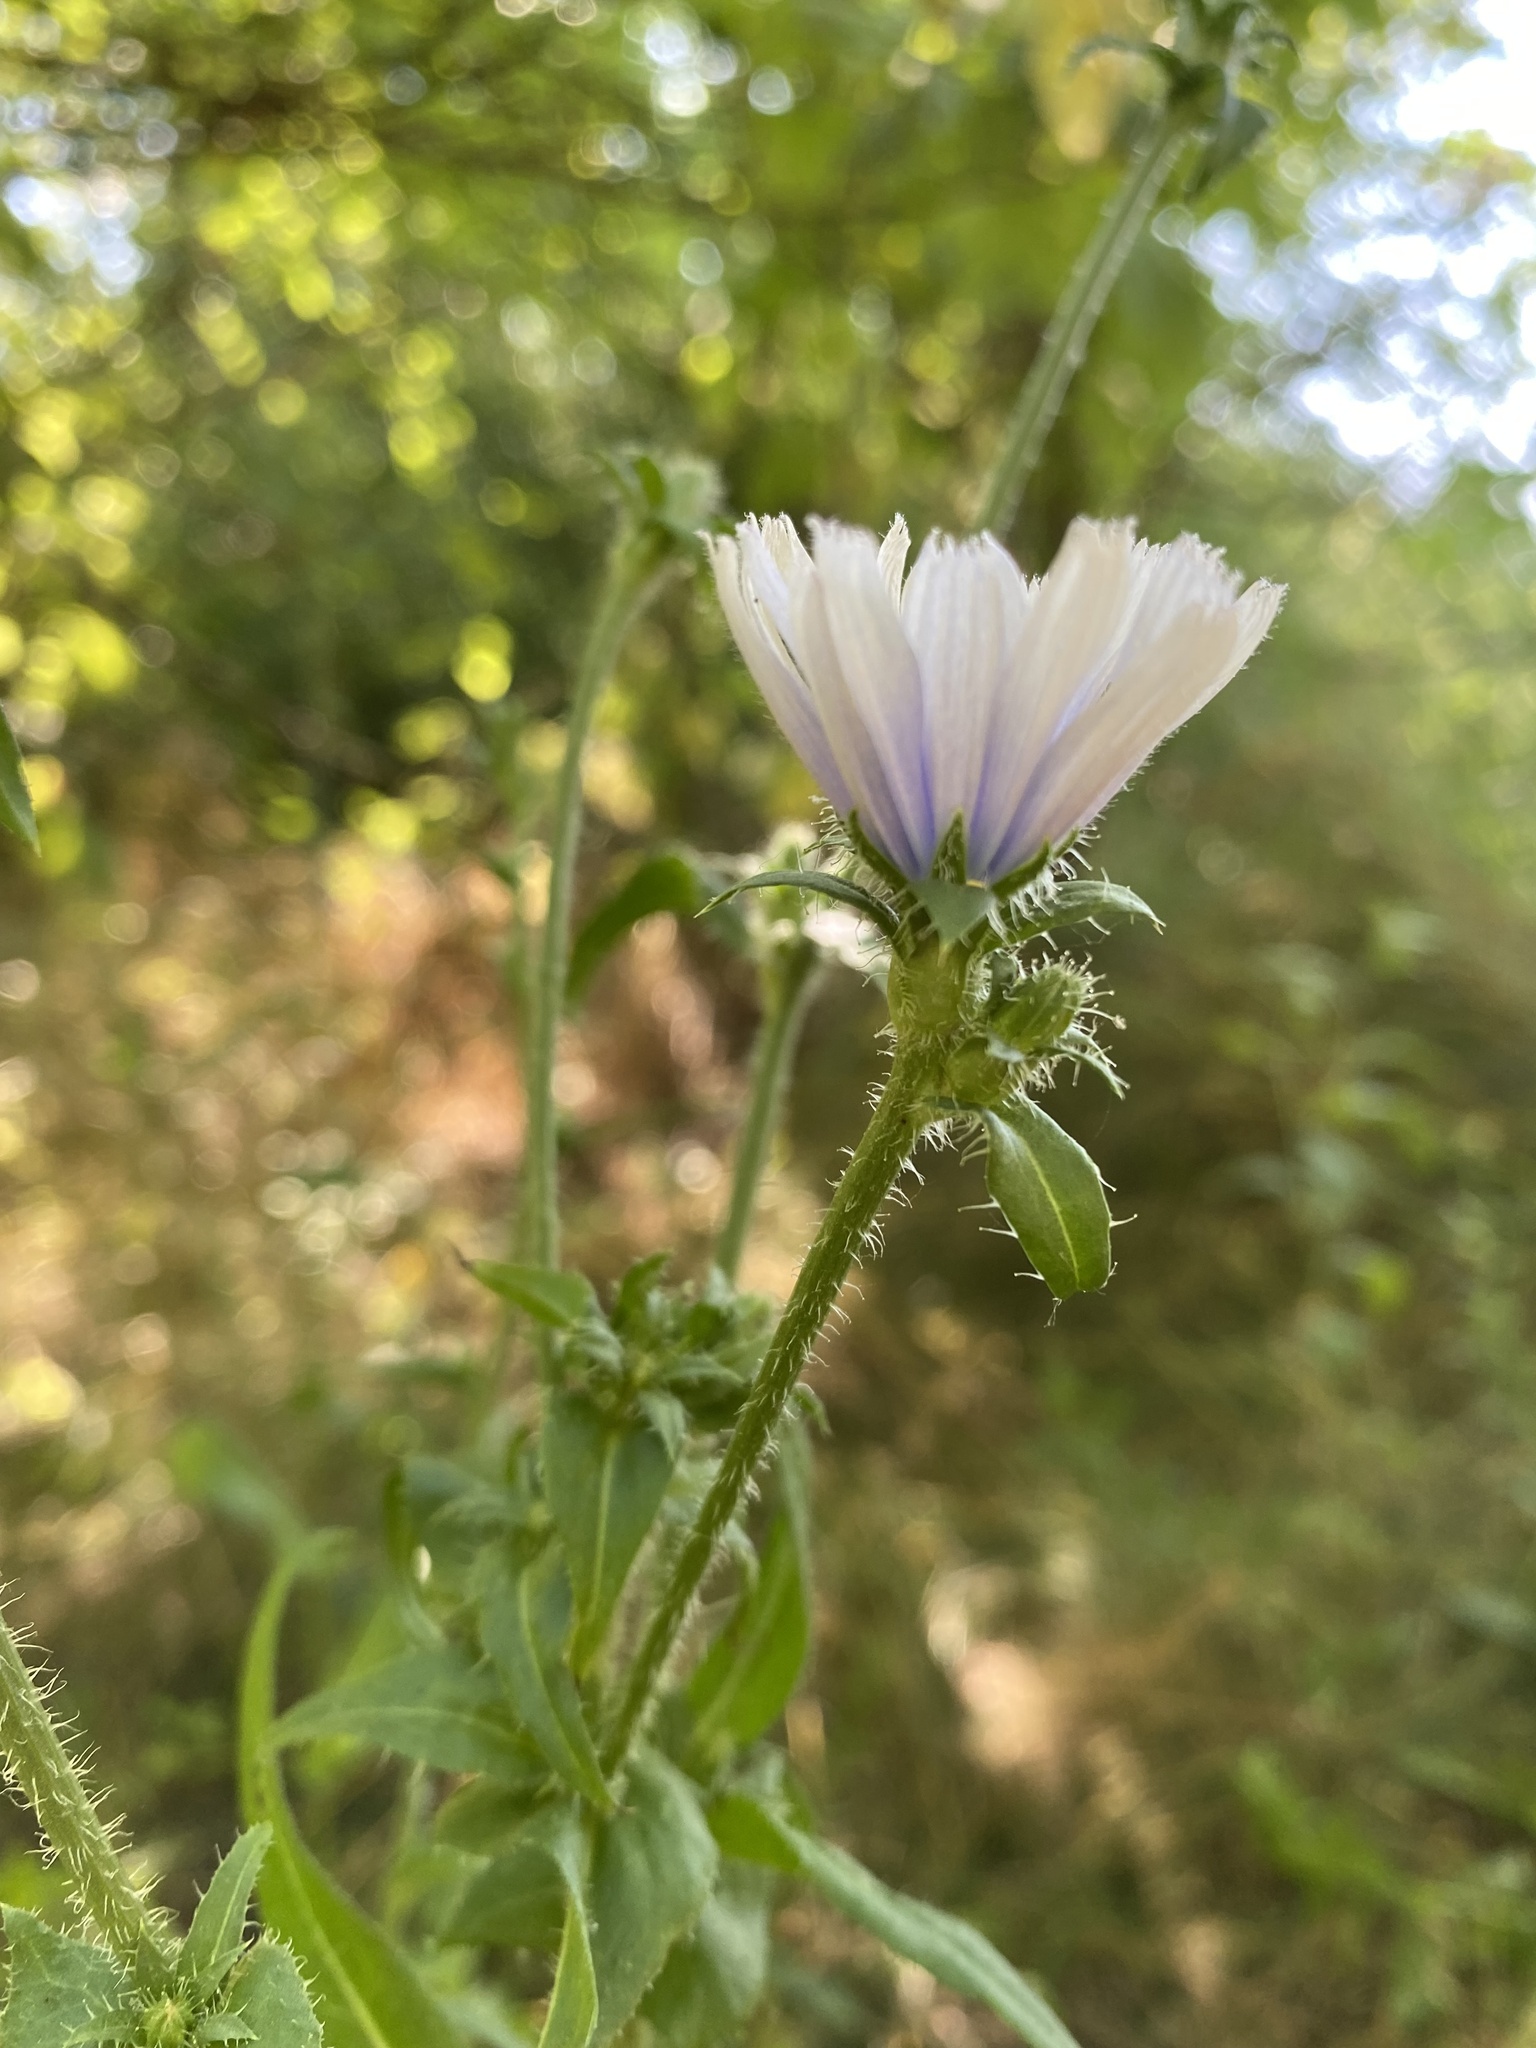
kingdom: Plantae
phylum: Tracheophyta
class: Magnoliopsida
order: Asterales
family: Asteraceae
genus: Cichorium
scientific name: Cichorium intybus
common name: Chicory
